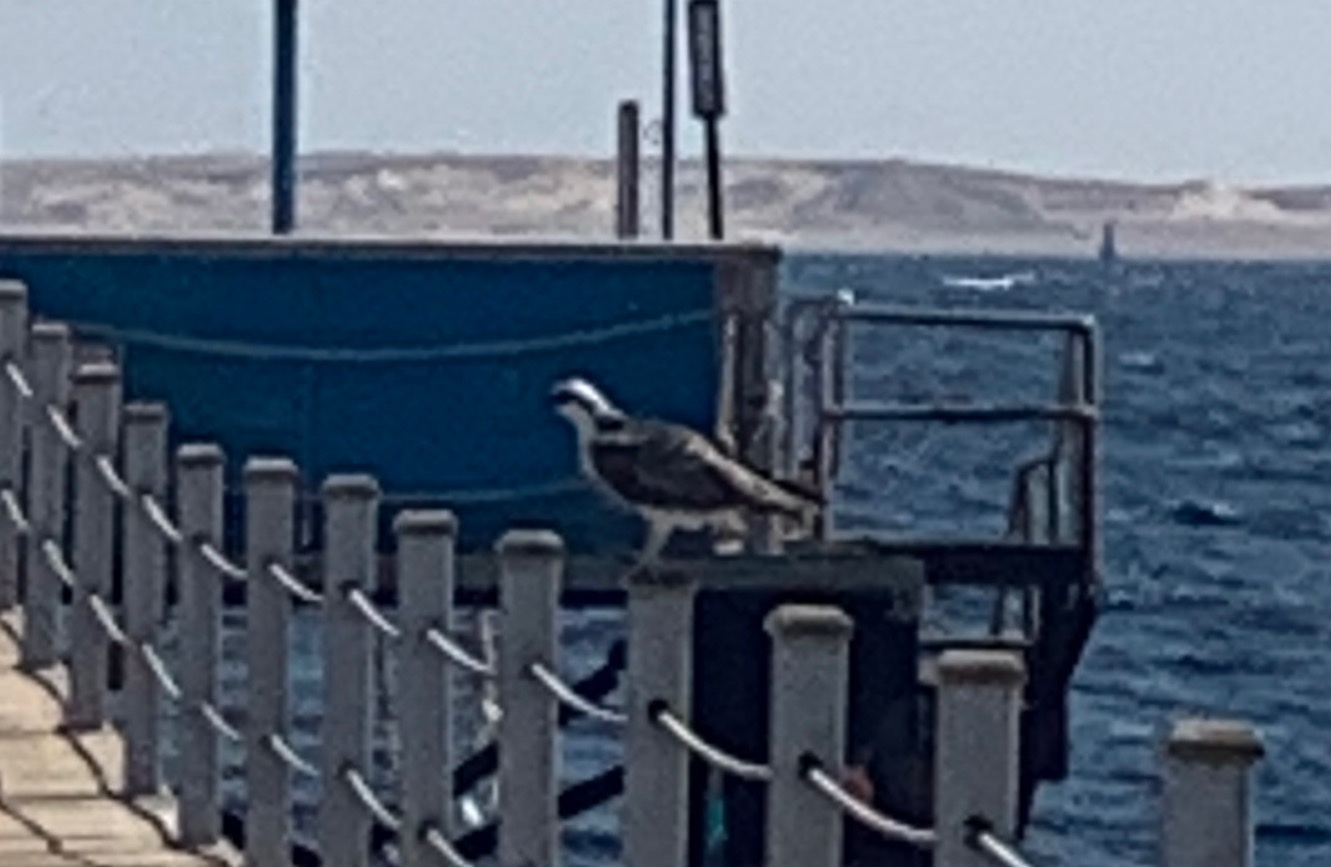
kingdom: Animalia
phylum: Chordata
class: Aves
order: Accipitriformes
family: Pandionidae
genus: Pandion
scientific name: Pandion haliaetus
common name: Osprey
